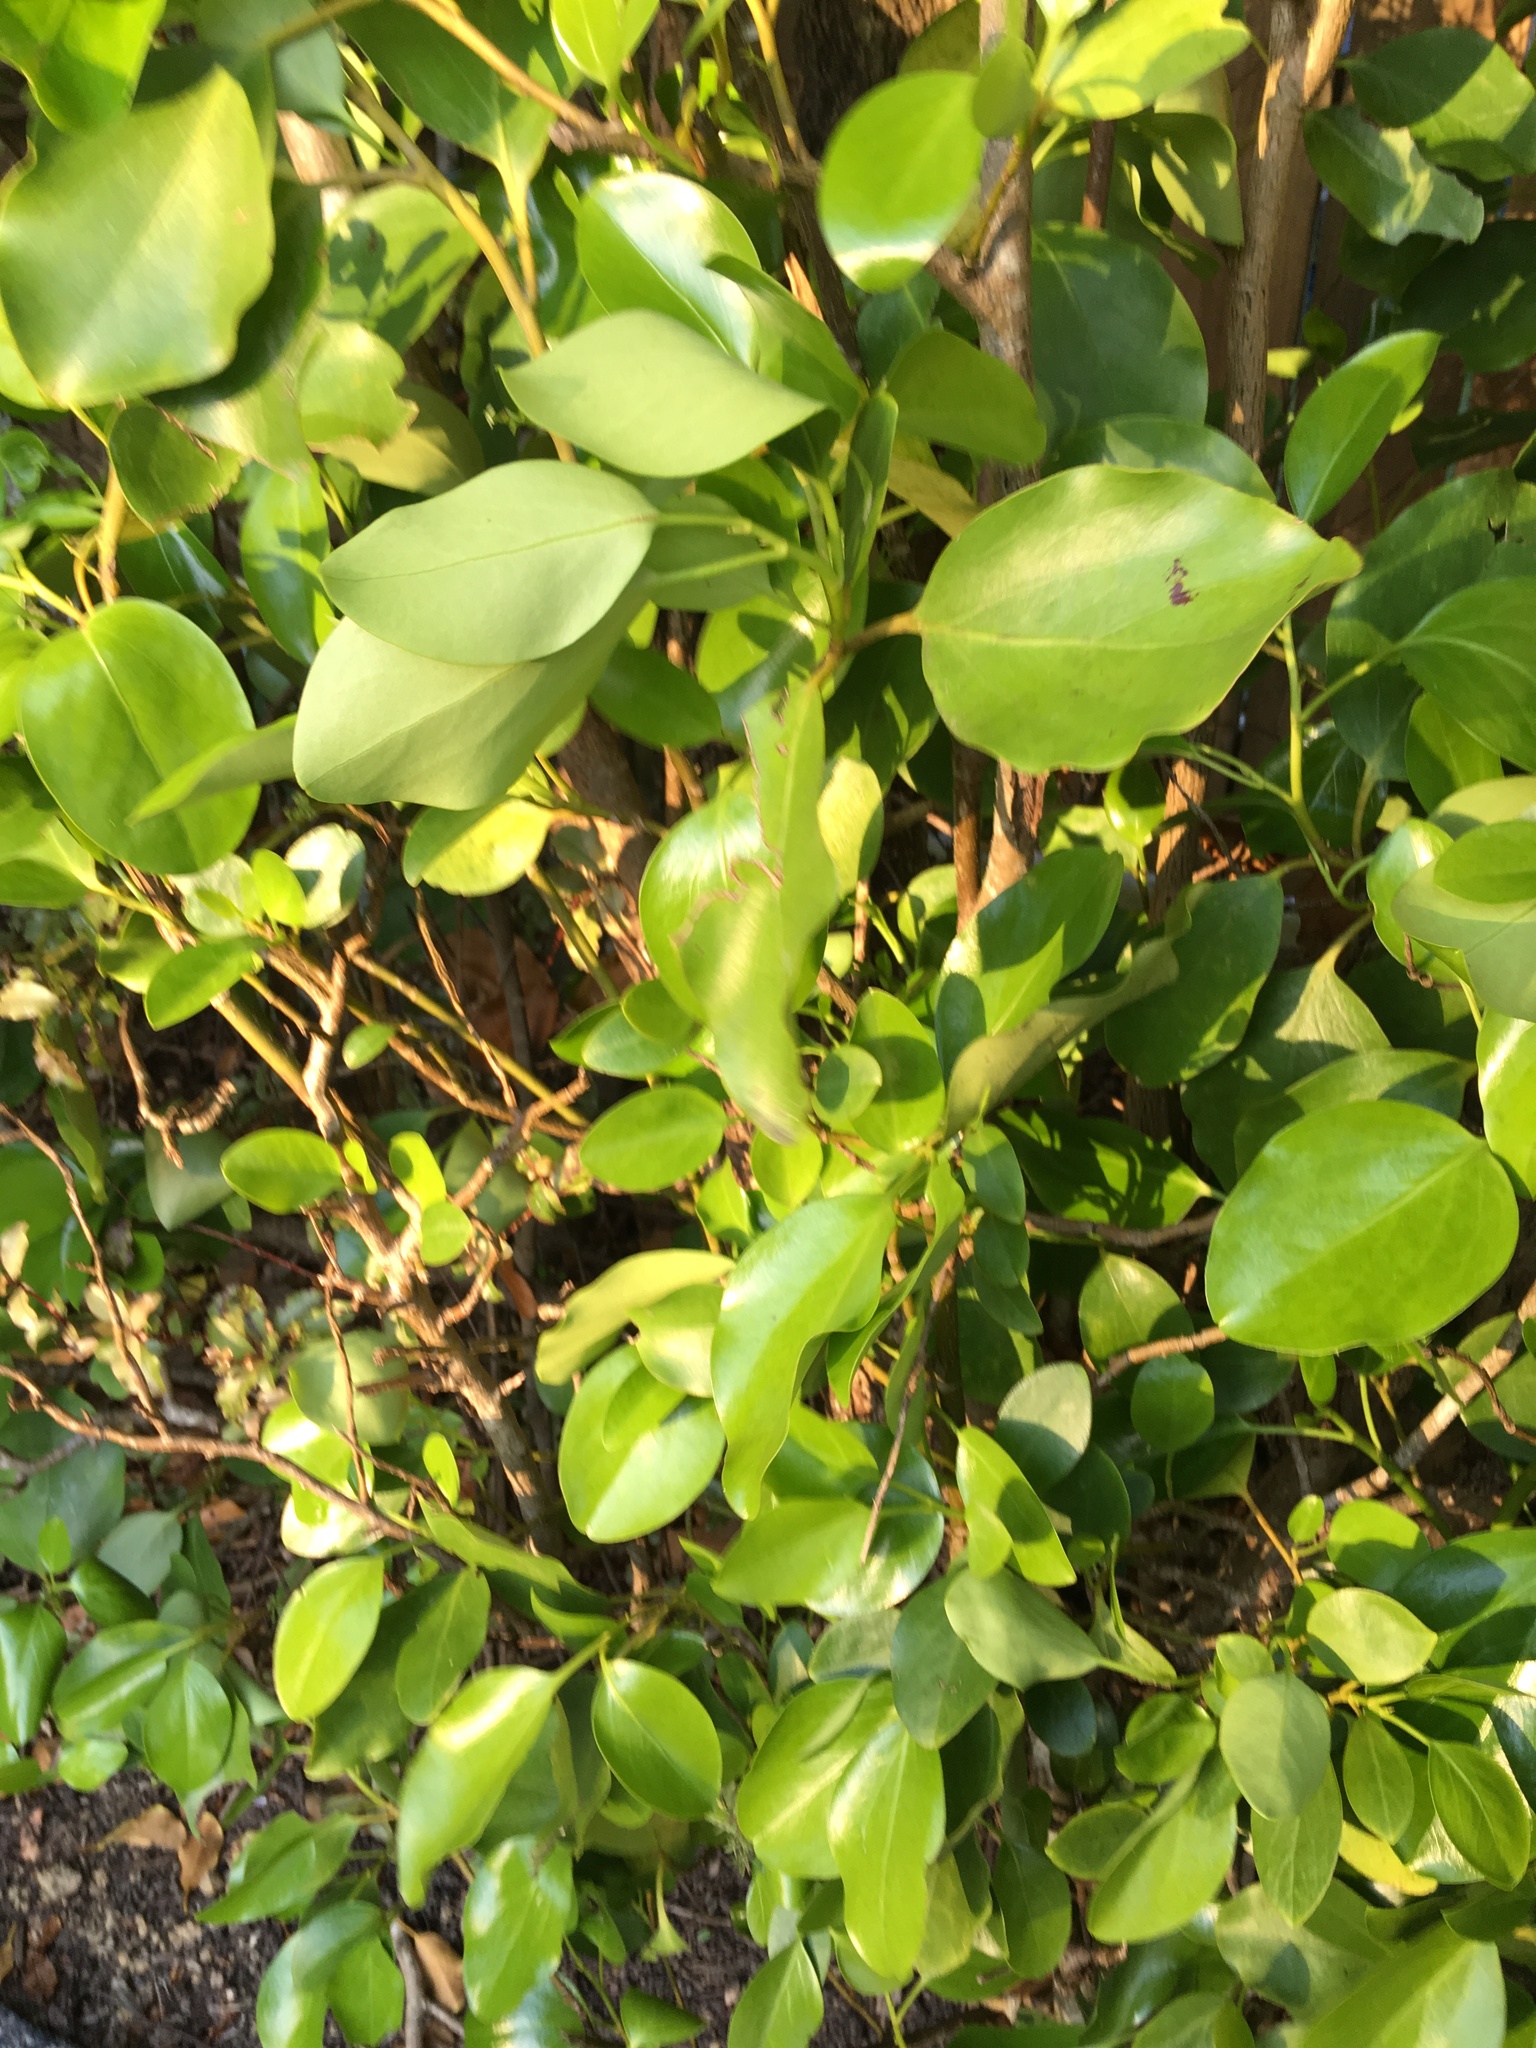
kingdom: Plantae
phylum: Tracheophyta
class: Magnoliopsida
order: Apiales
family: Griseliniaceae
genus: Griselinia
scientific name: Griselinia littoralis
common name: New zealand broadleaf
